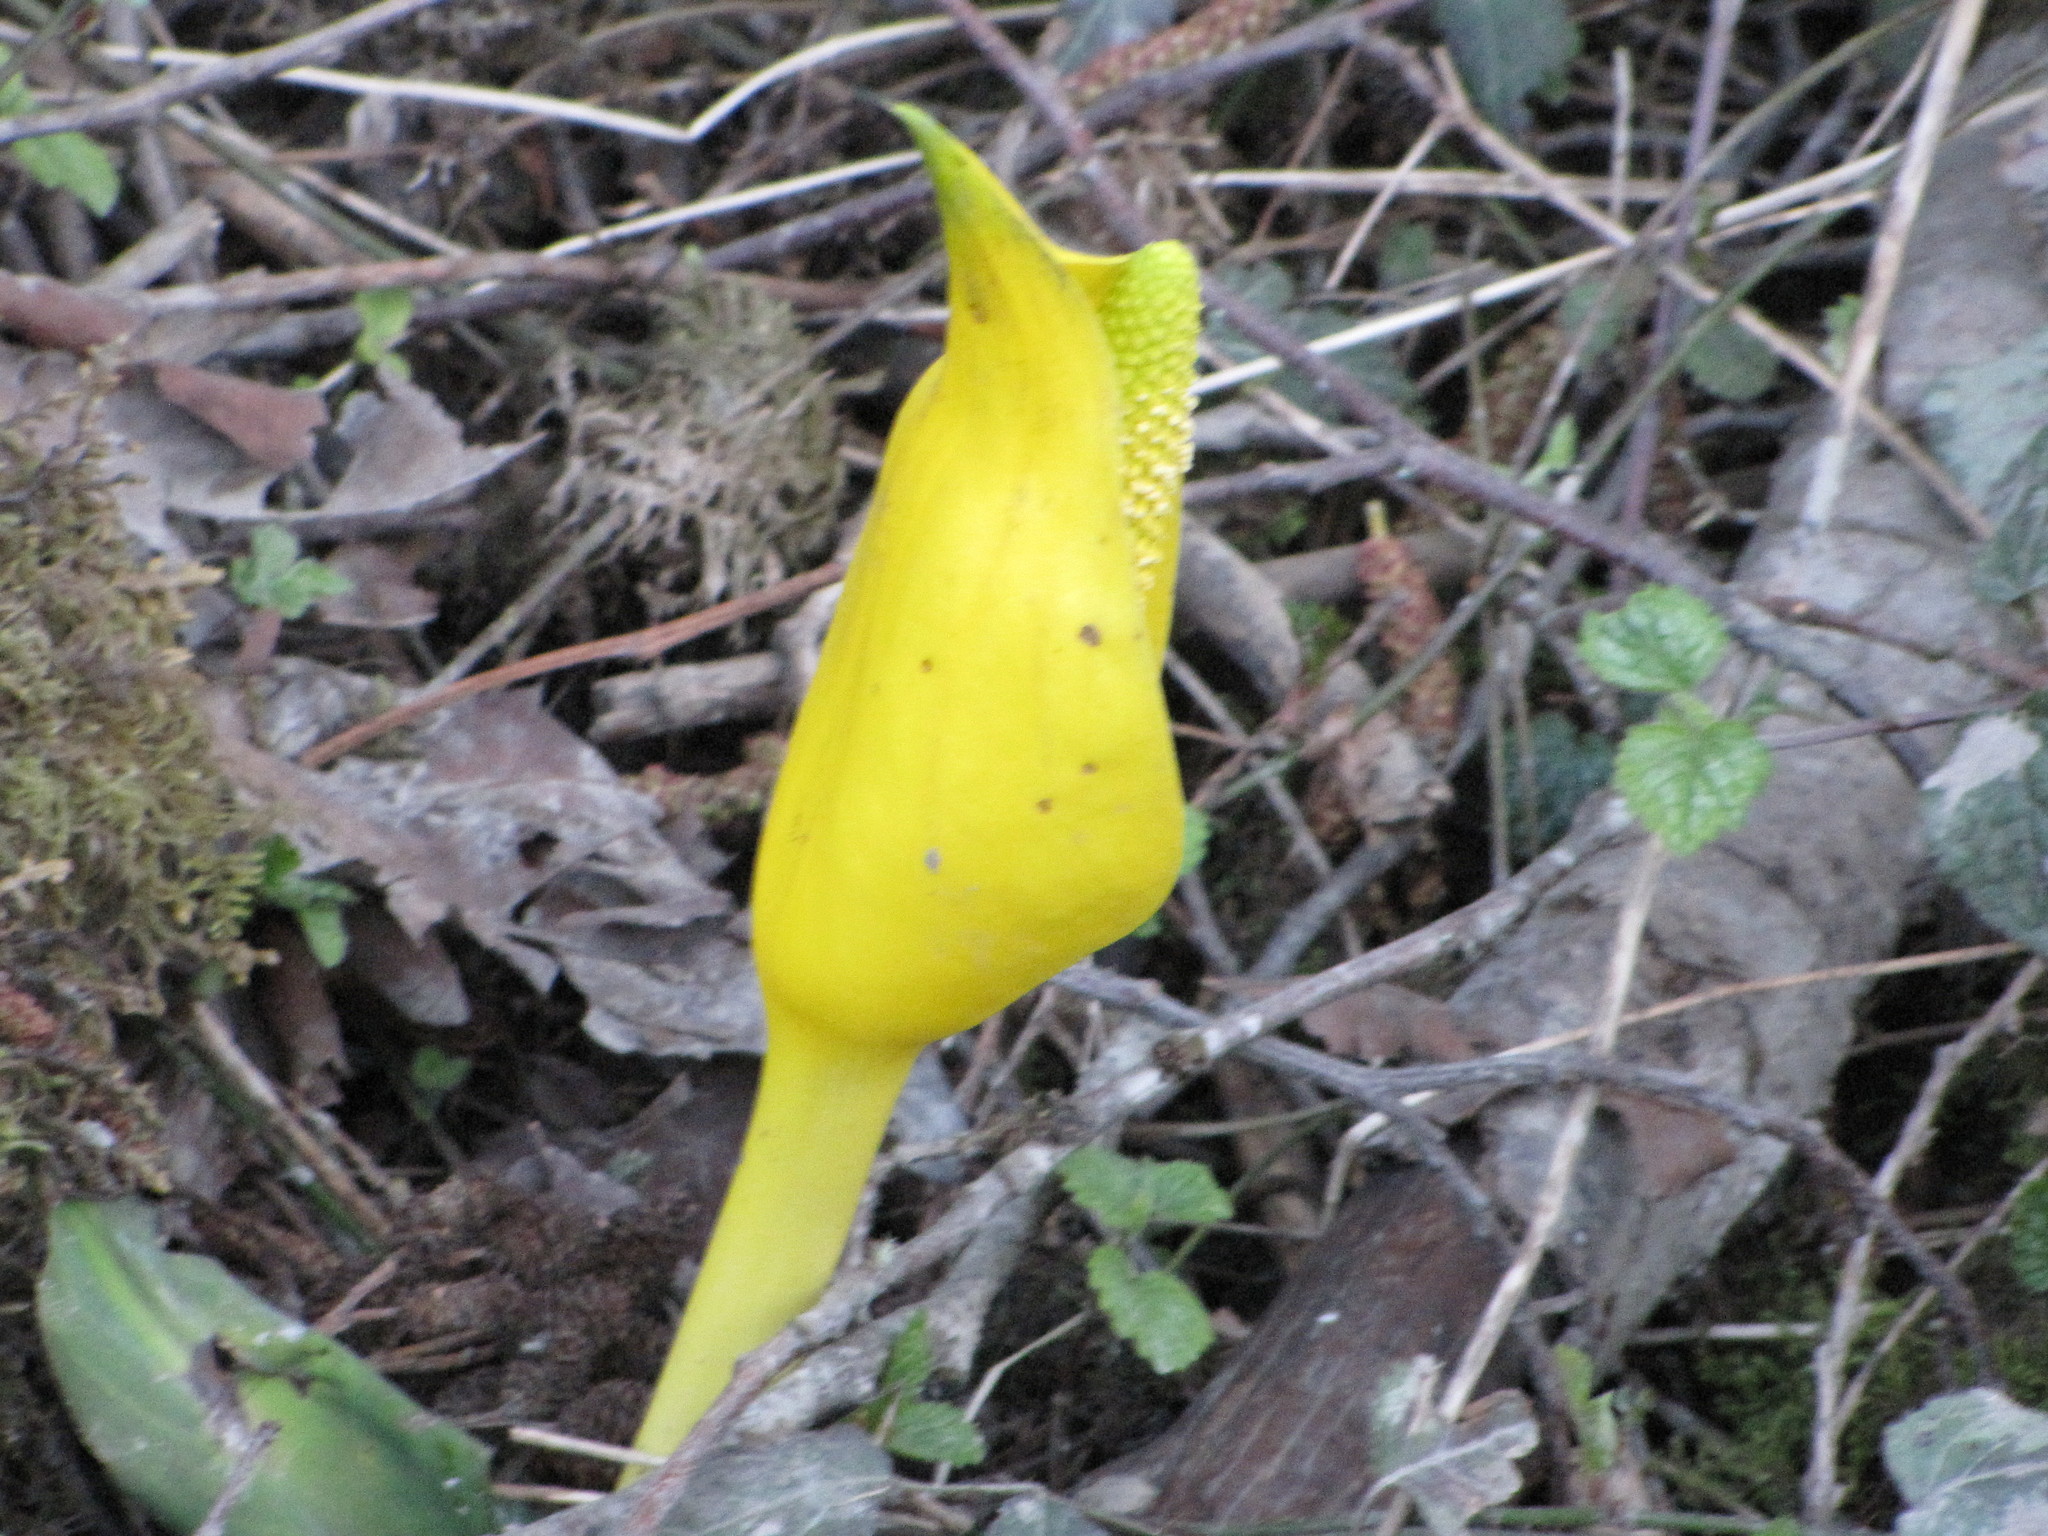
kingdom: Plantae
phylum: Tracheophyta
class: Liliopsida
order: Alismatales
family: Araceae
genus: Lysichiton
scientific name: Lysichiton americanus
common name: American skunk cabbage
